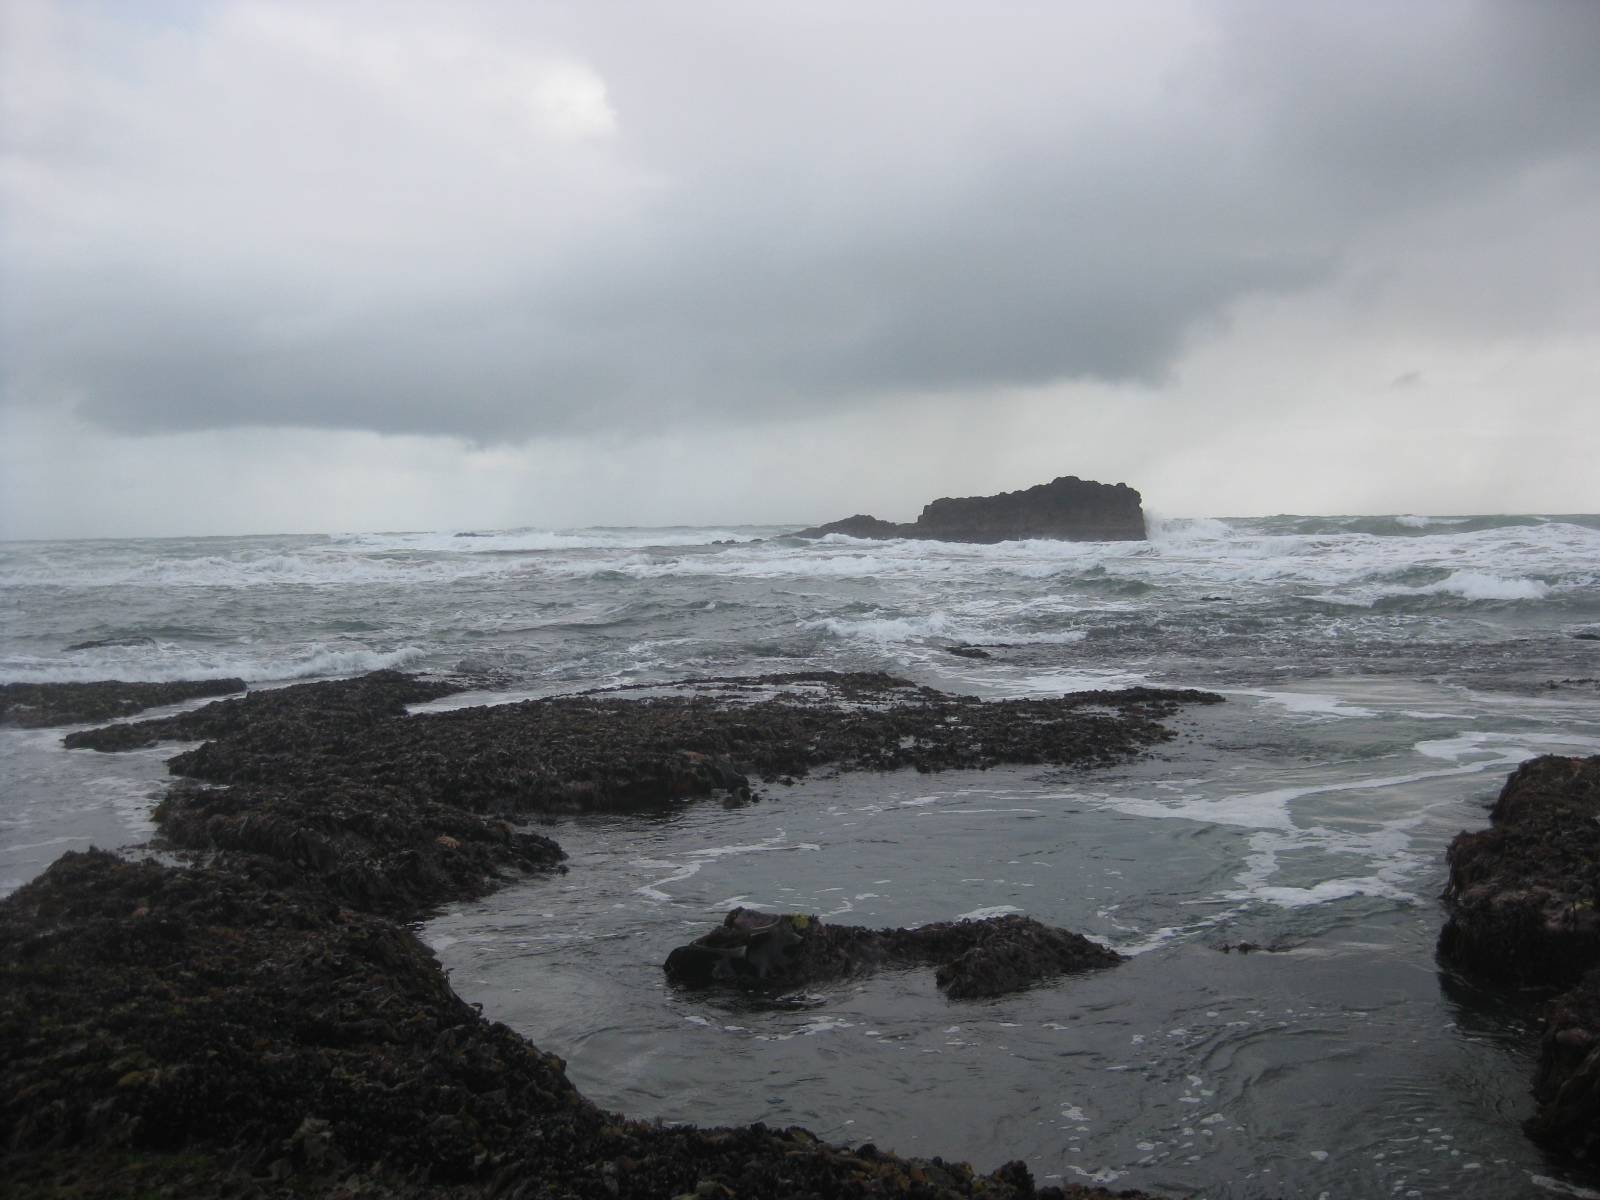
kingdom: Animalia
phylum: Echinodermata
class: Asteroidea
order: Forcipulatida
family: Stichasteridae
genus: Stichaster
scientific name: Stichaster australis
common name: Reef starfish
